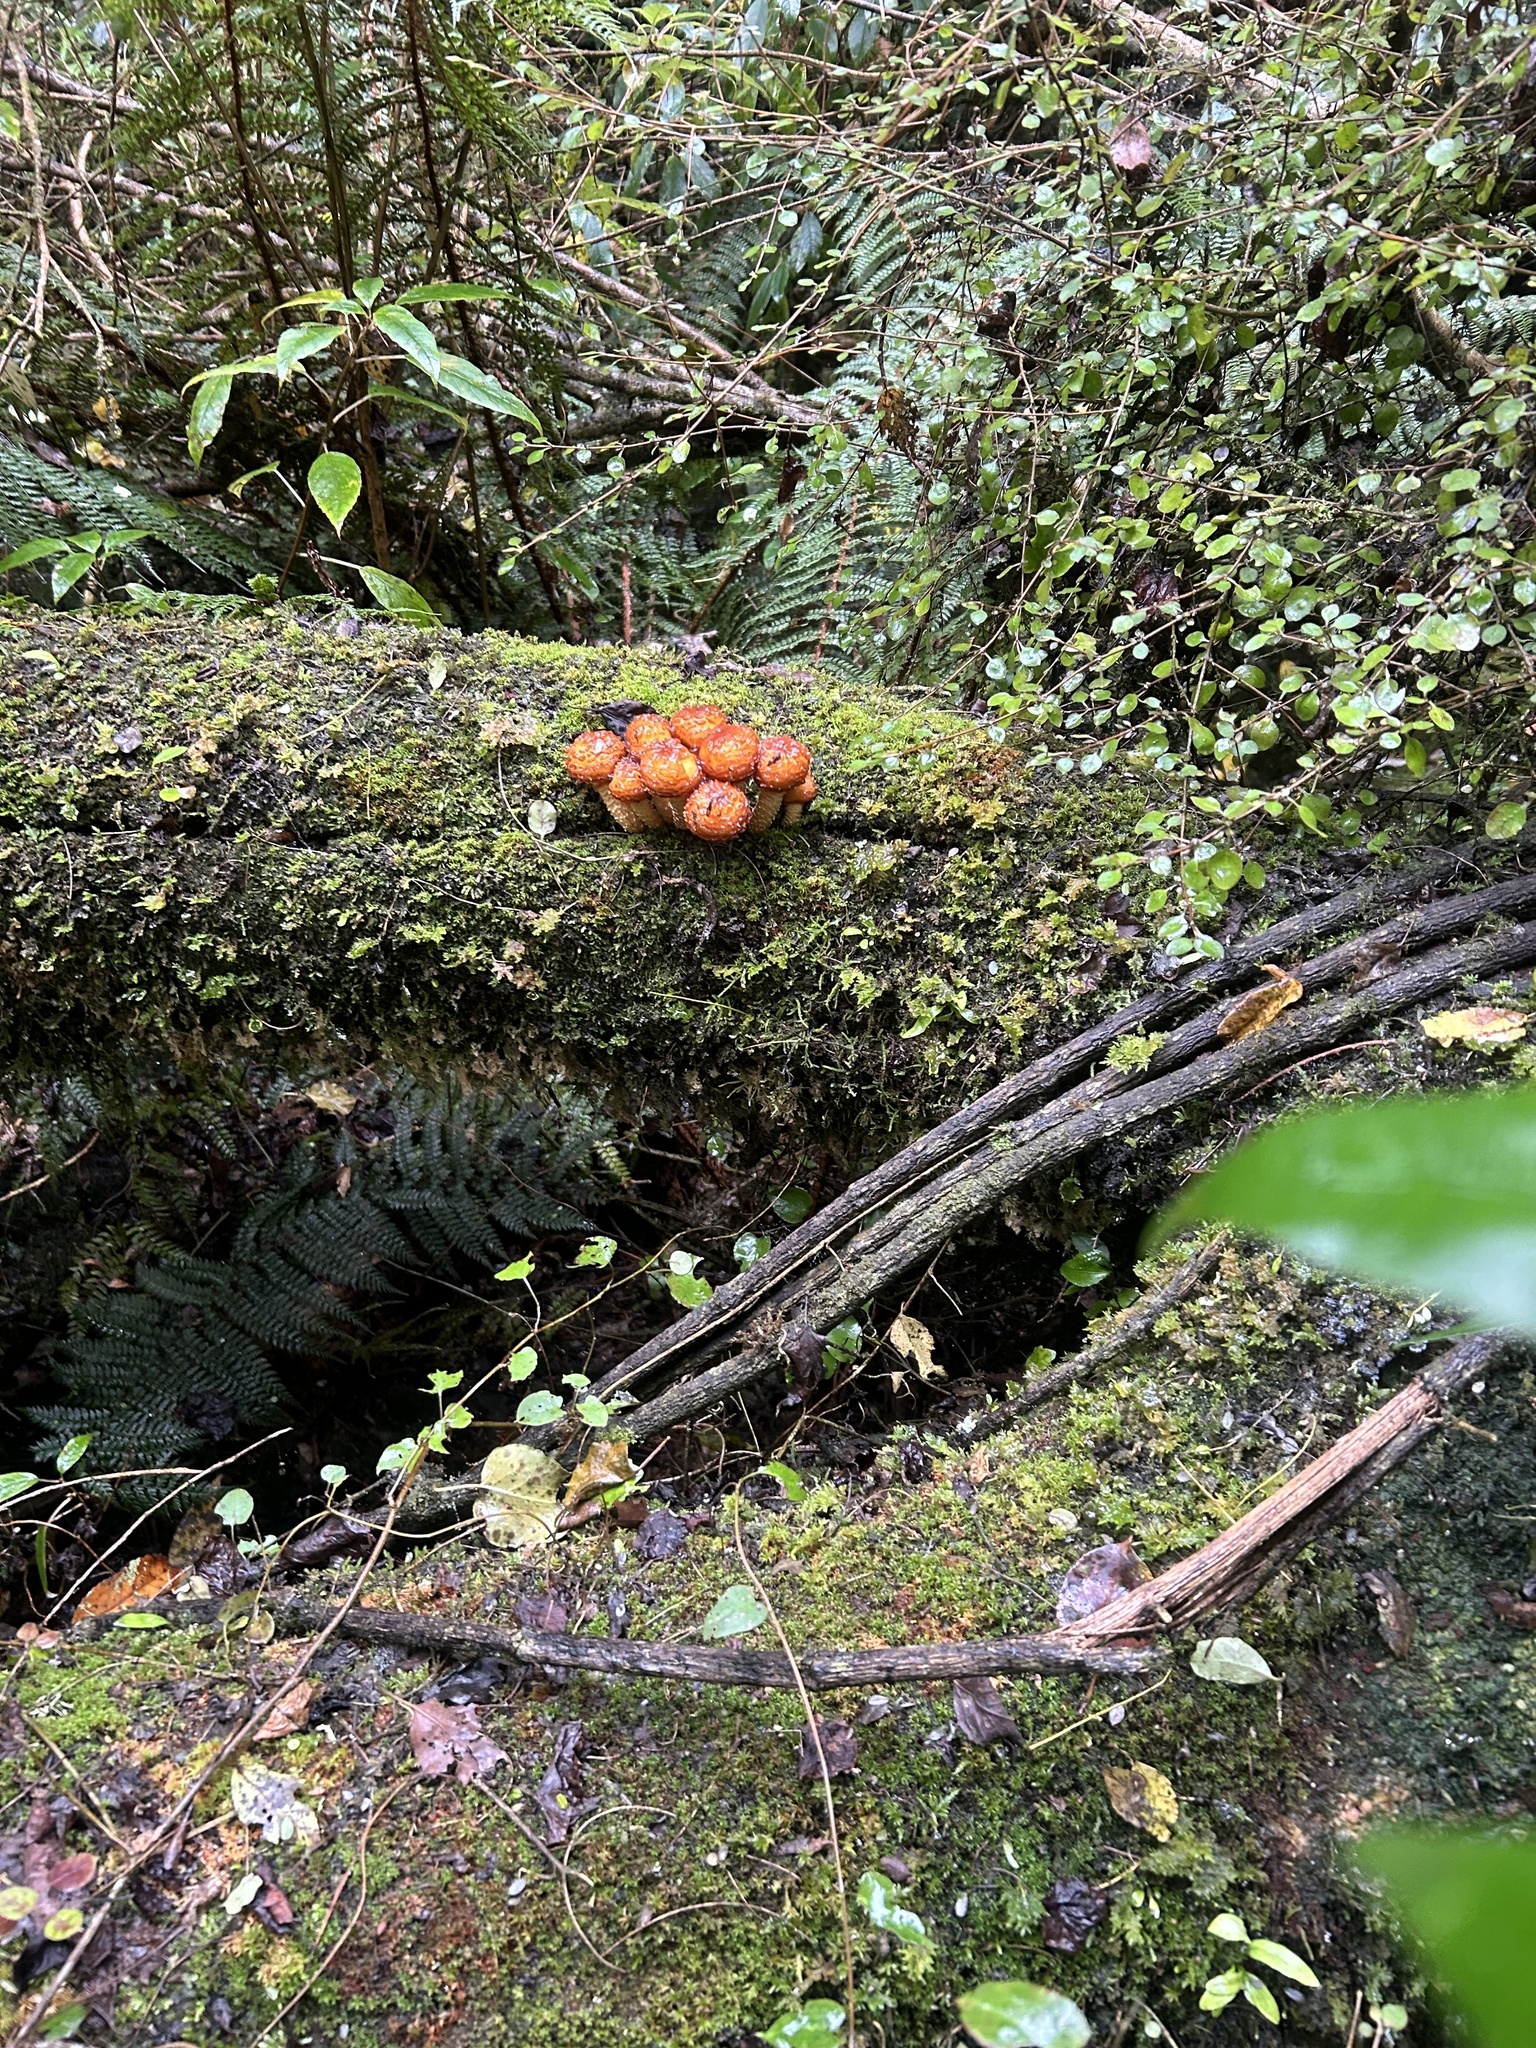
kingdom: Fungi
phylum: Basidiomycota
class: Agaricomycetes
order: Agaricales
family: Strophariaceae
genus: Pholiota
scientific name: Pholiota glutinosa
